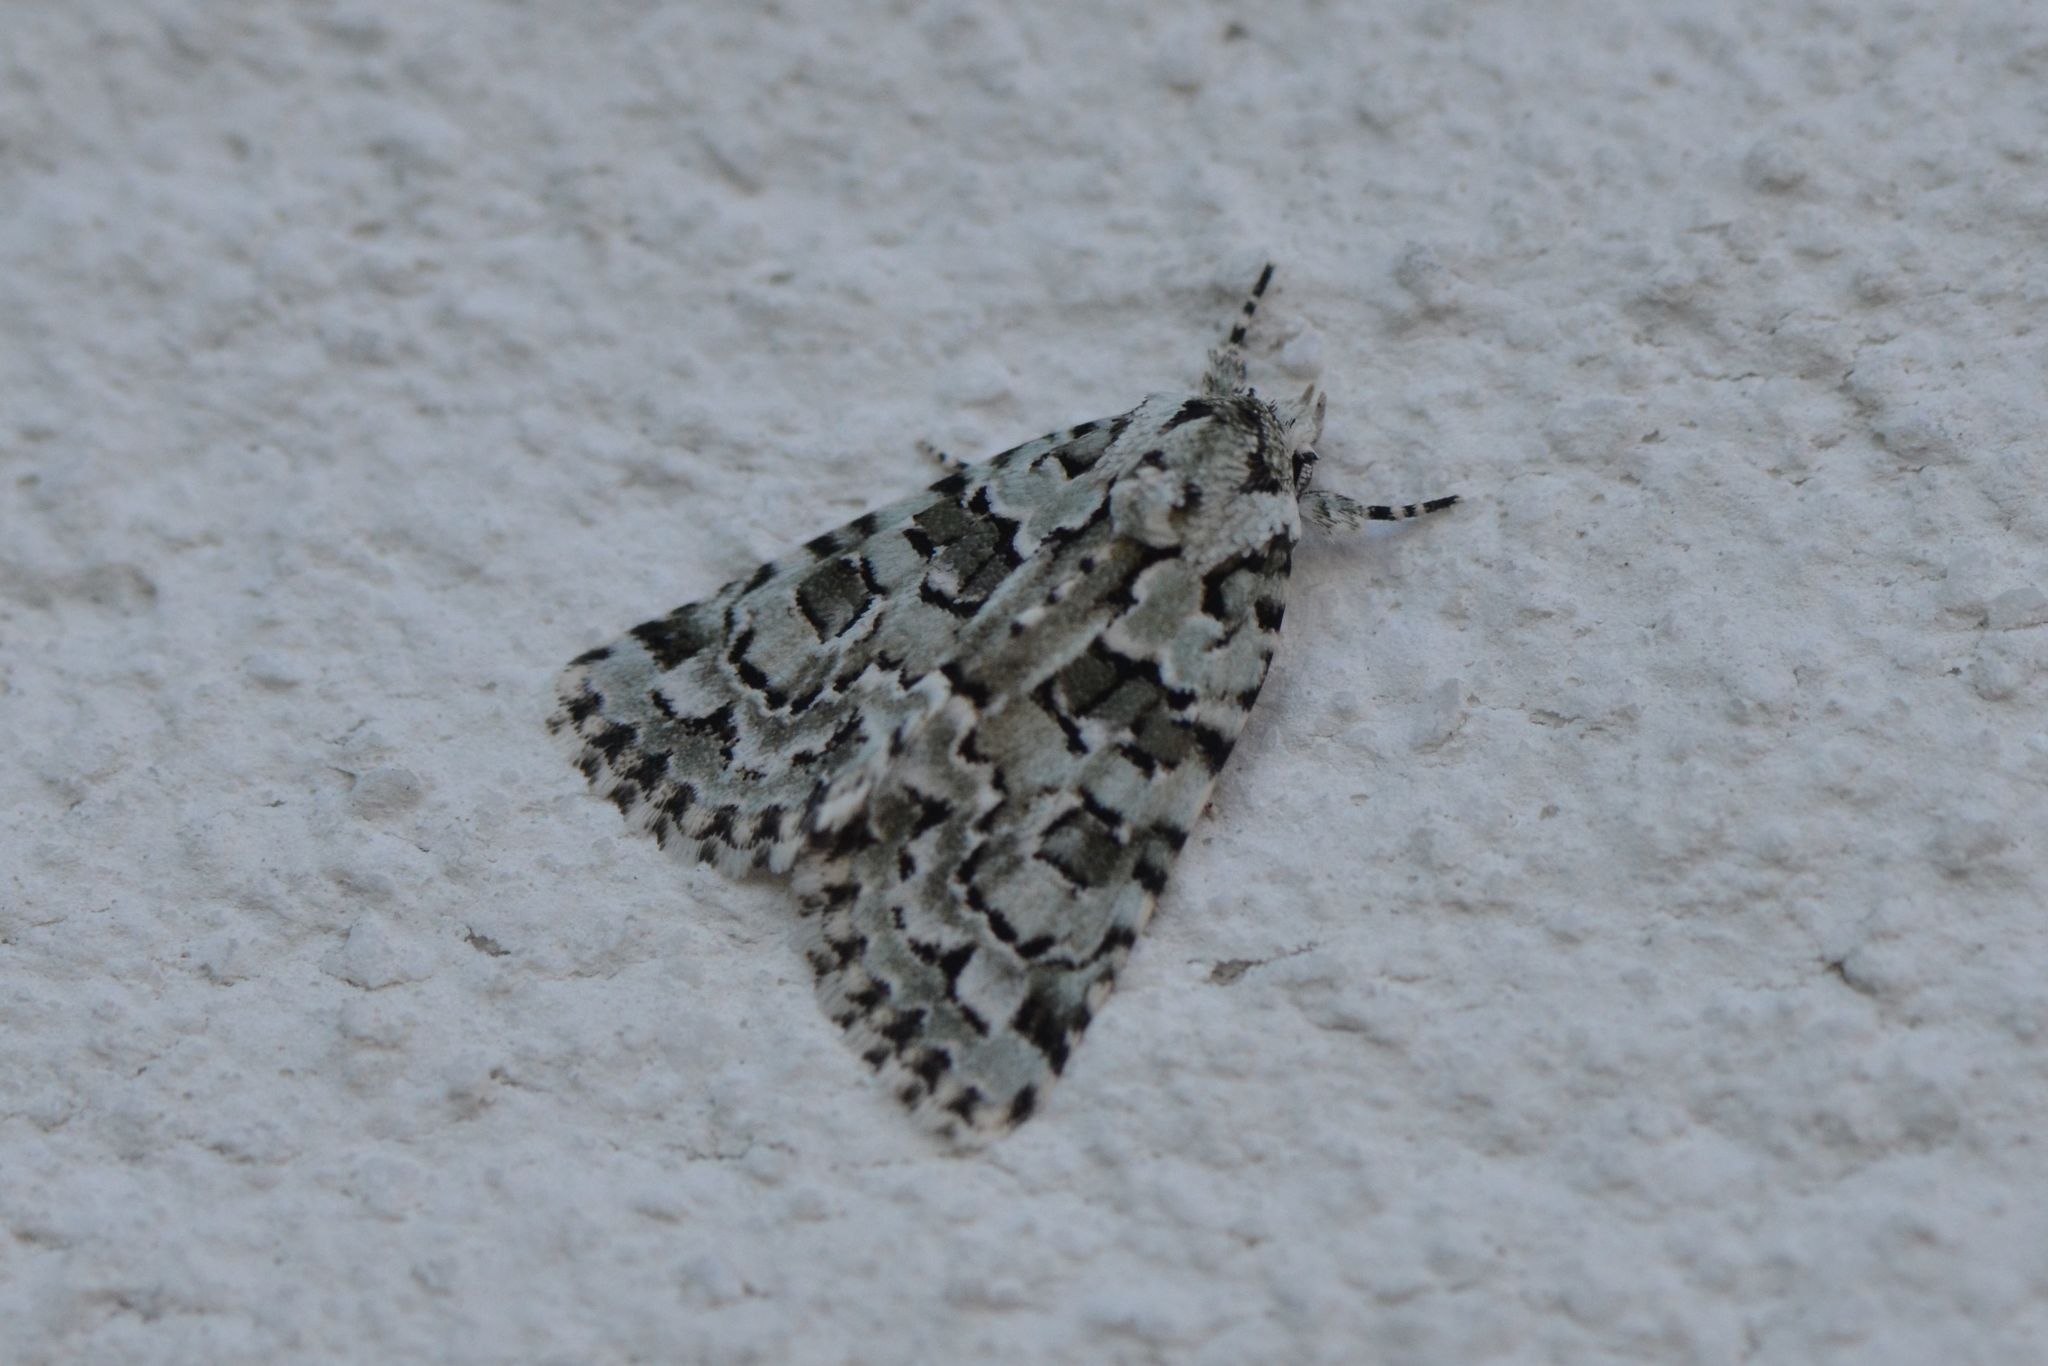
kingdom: Animalia
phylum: Arthropoda
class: Insecta
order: Lepidoptera
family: Noctuidae
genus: Nyctobrya
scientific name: Nyctobrya muralis
